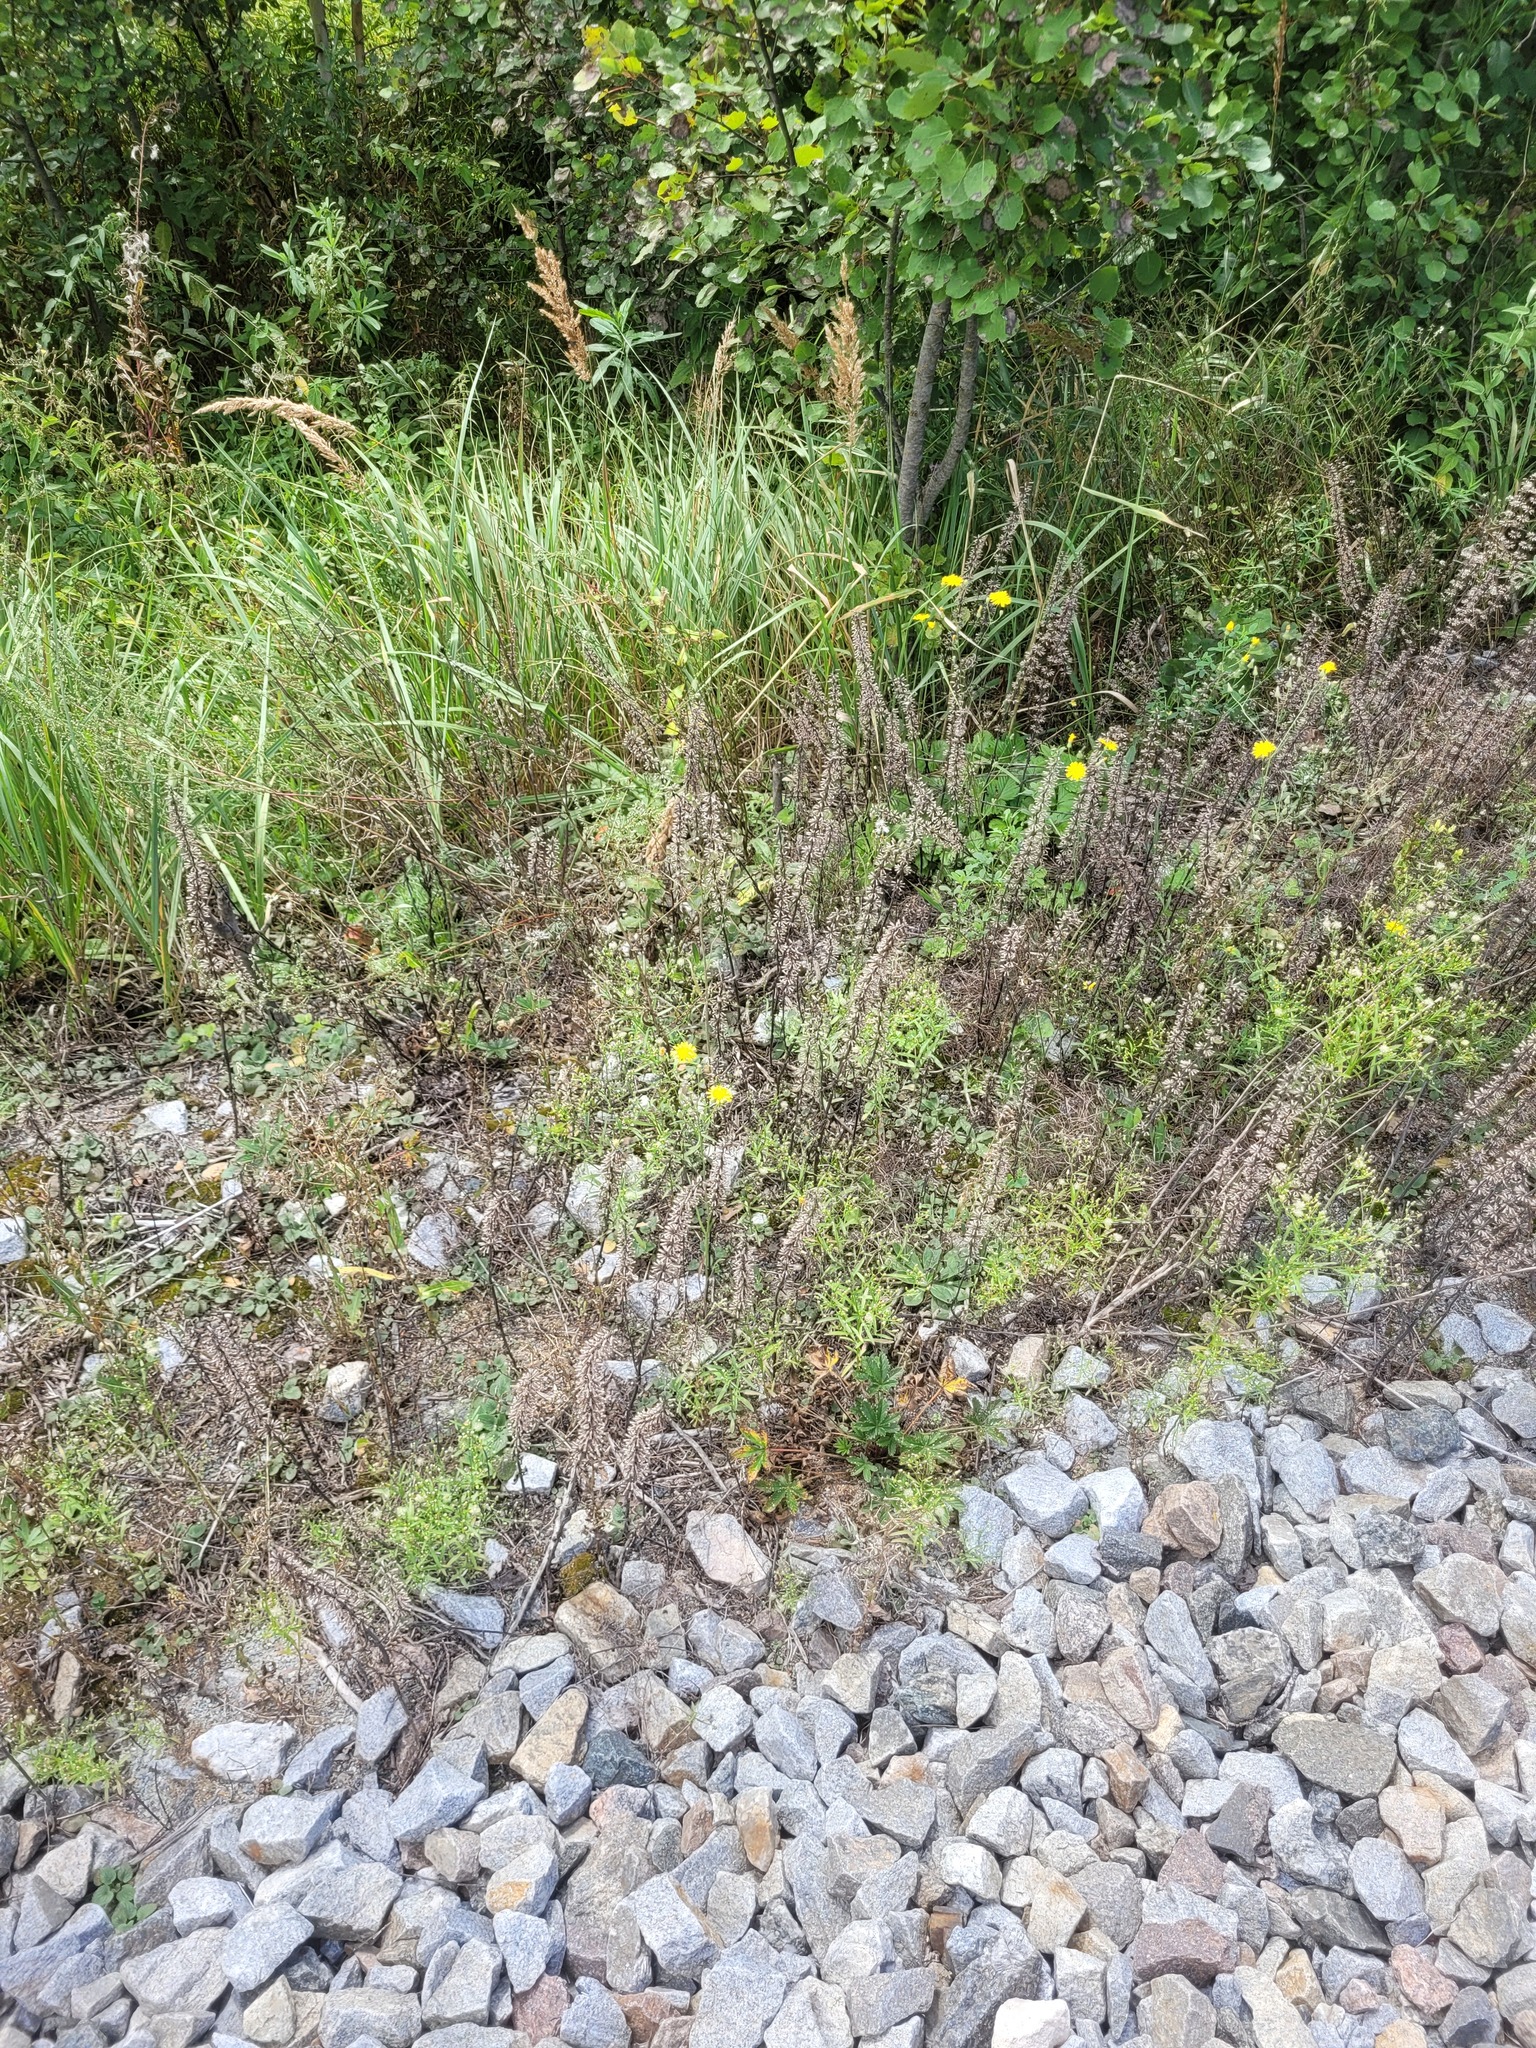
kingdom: Plantae
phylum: Tracheophyta
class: Magnoliopsida
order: Lamiales
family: Lamiaceae
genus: Dracocephalum
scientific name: Dracocephalum thymiflorum
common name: Thymeleaf dragonhead
